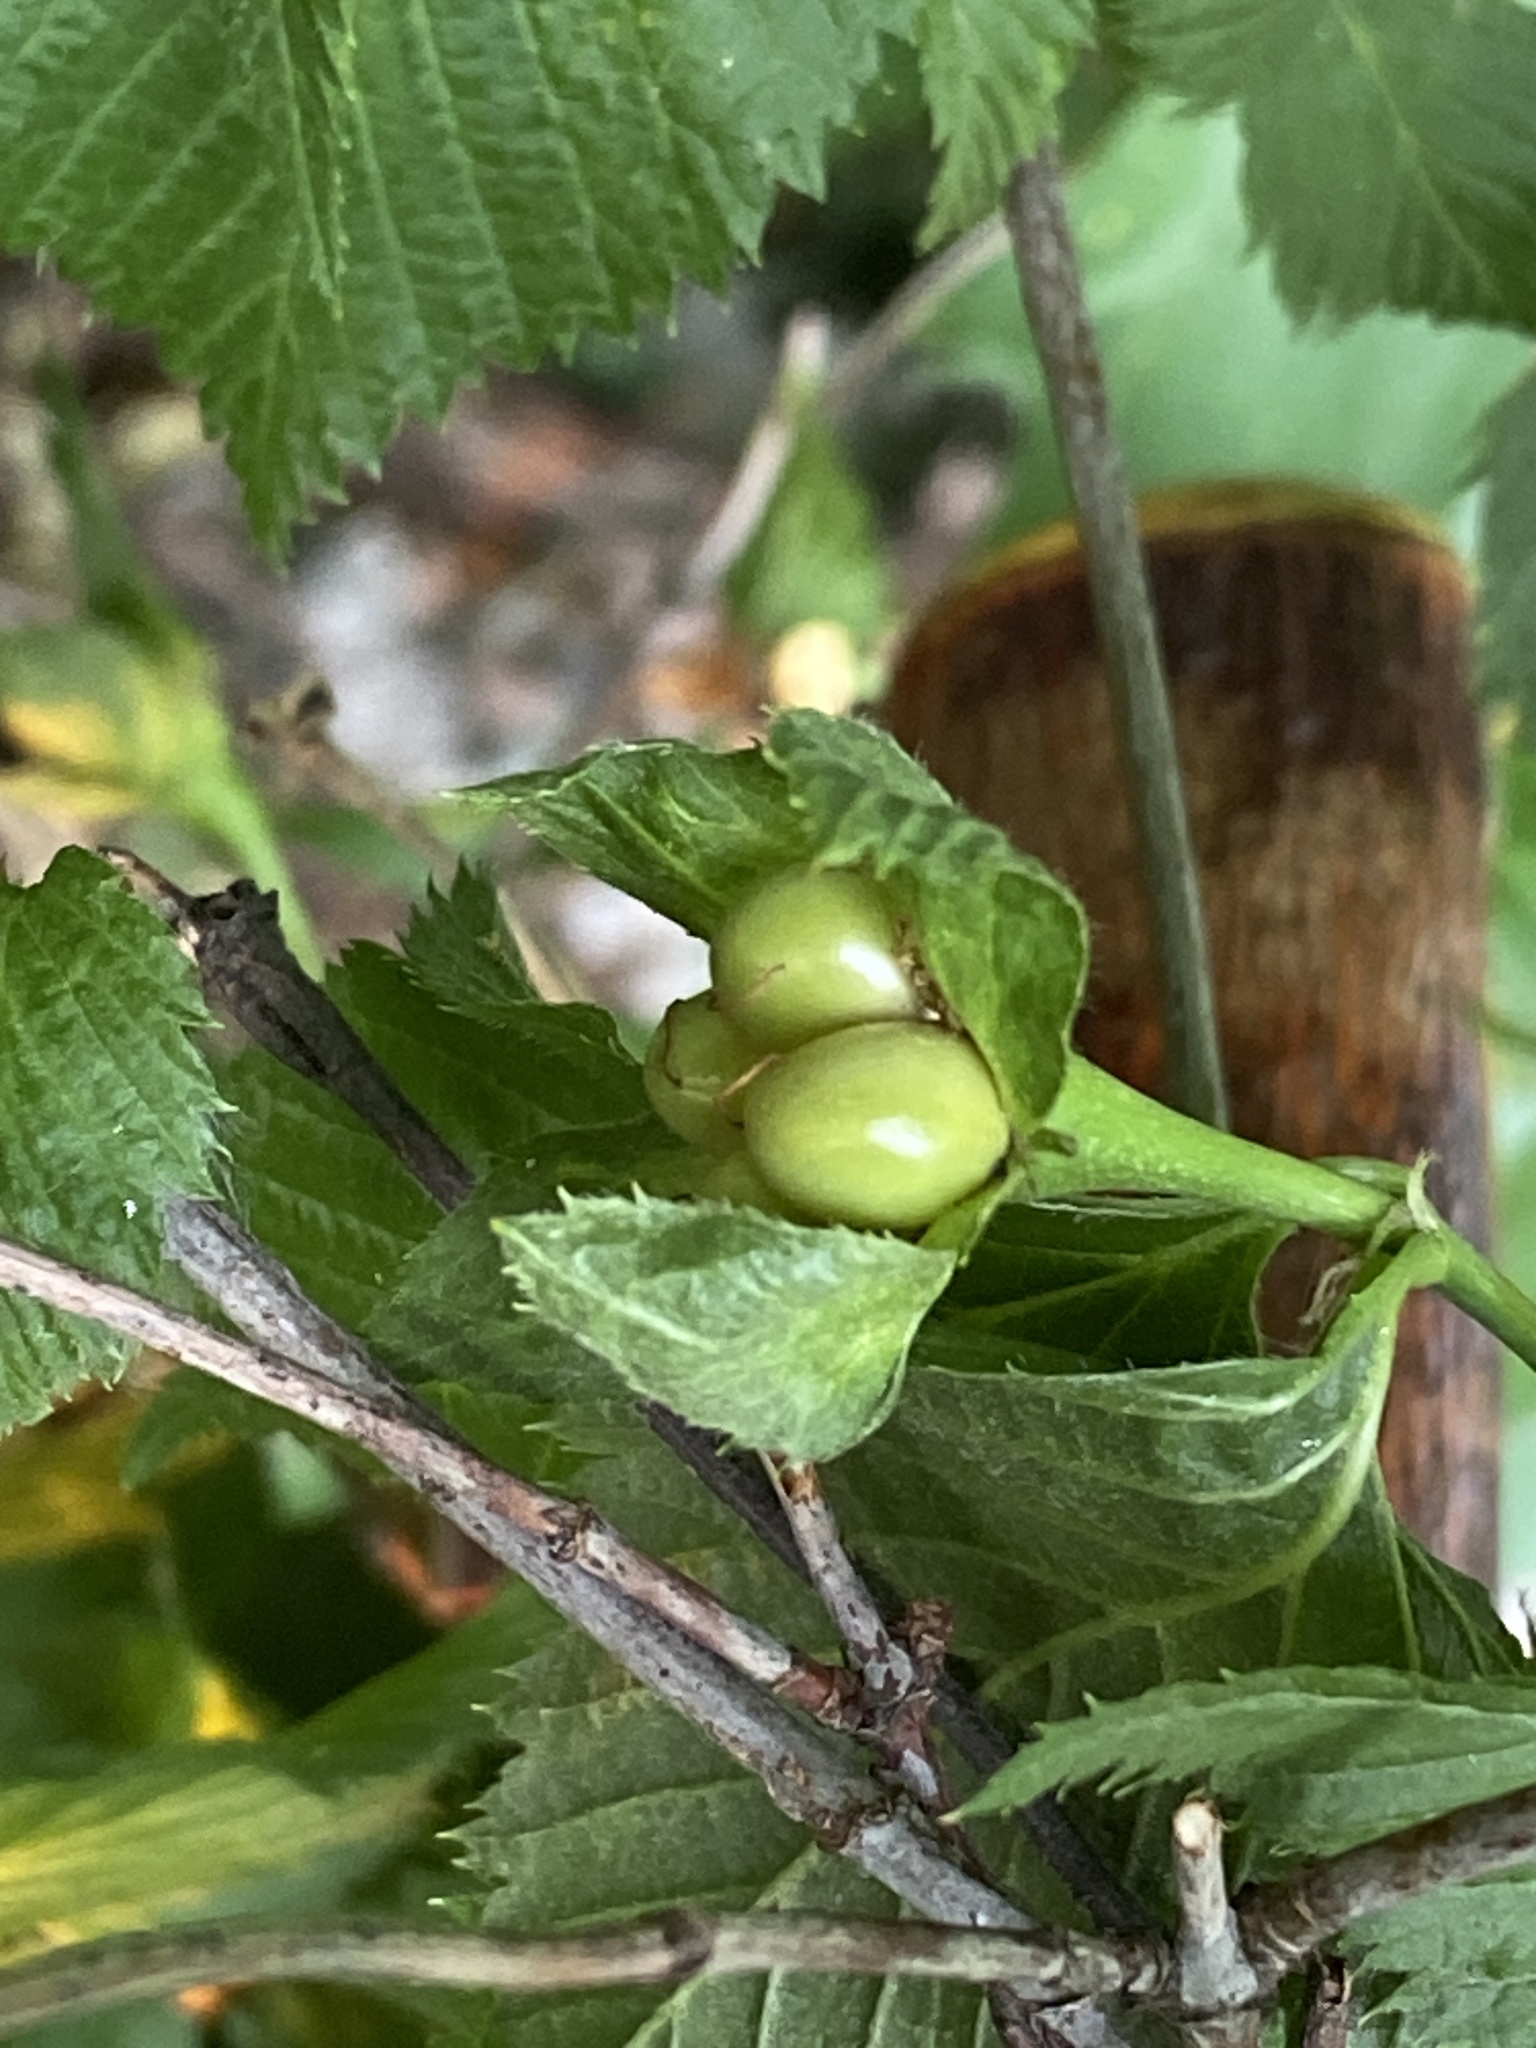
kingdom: Plantae
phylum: Tracheophyta
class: Magnoliopsida
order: Rosales
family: Rosaceae
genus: Rhodotypos
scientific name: Rhodotypos scandens
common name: Jetbead
